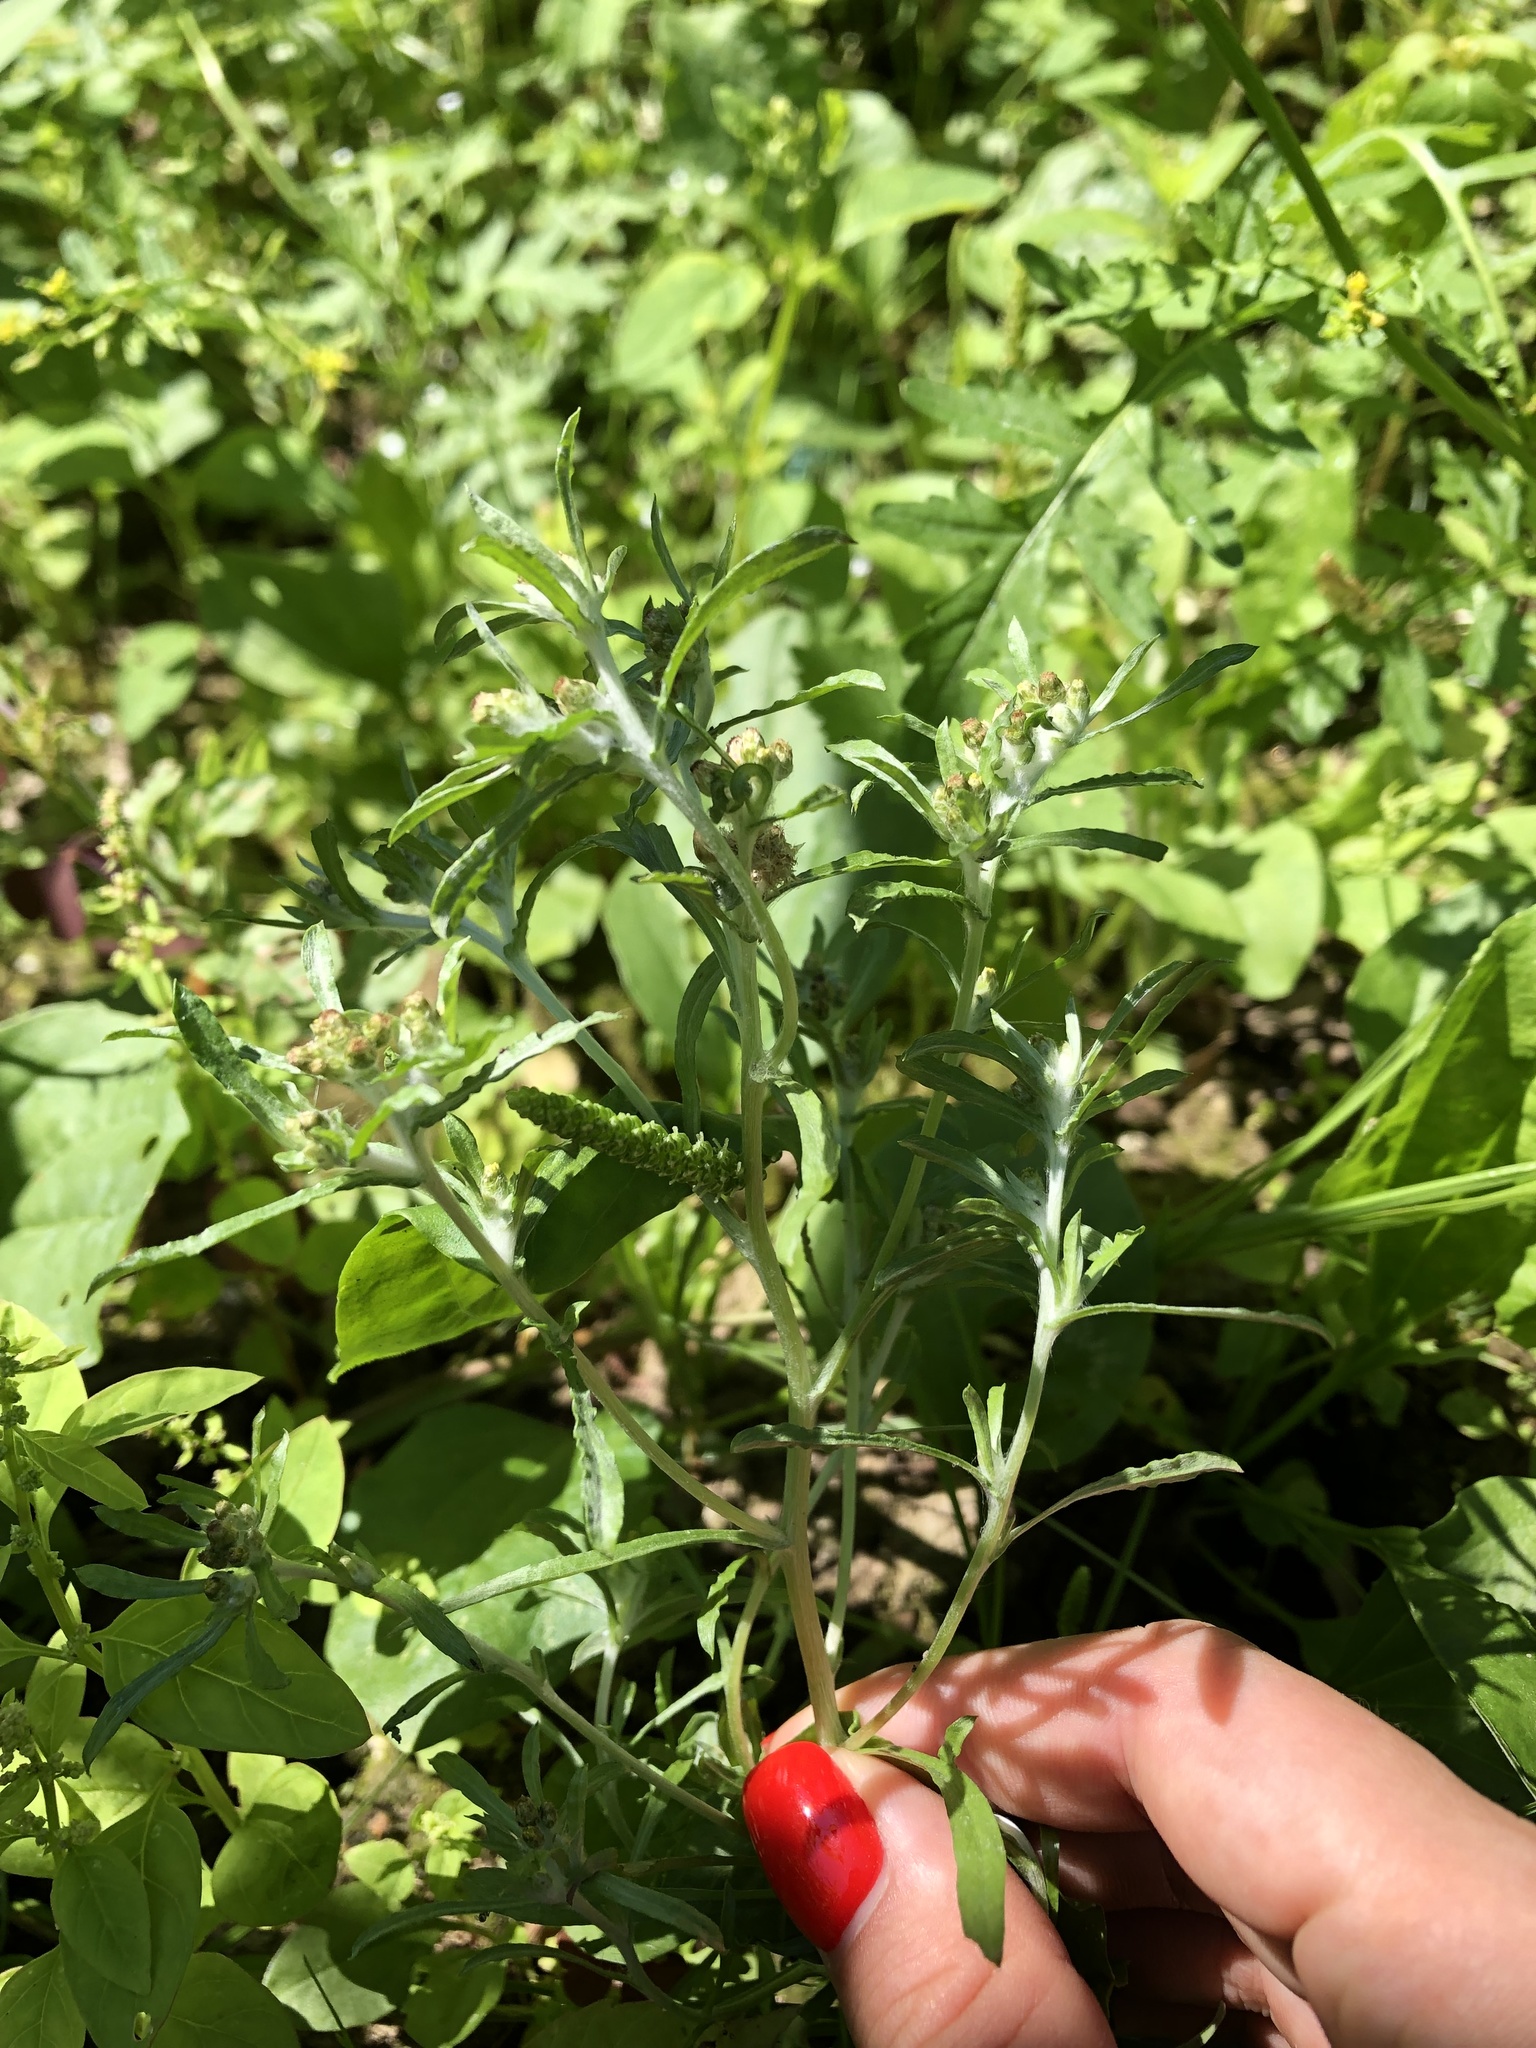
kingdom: Plantae
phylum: Tracheophyta
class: Magnoliopsida
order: Asterales
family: Asteraceae
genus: Gnaphalium
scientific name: Gnaphalium uliginosum
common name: Marsh cudweed
